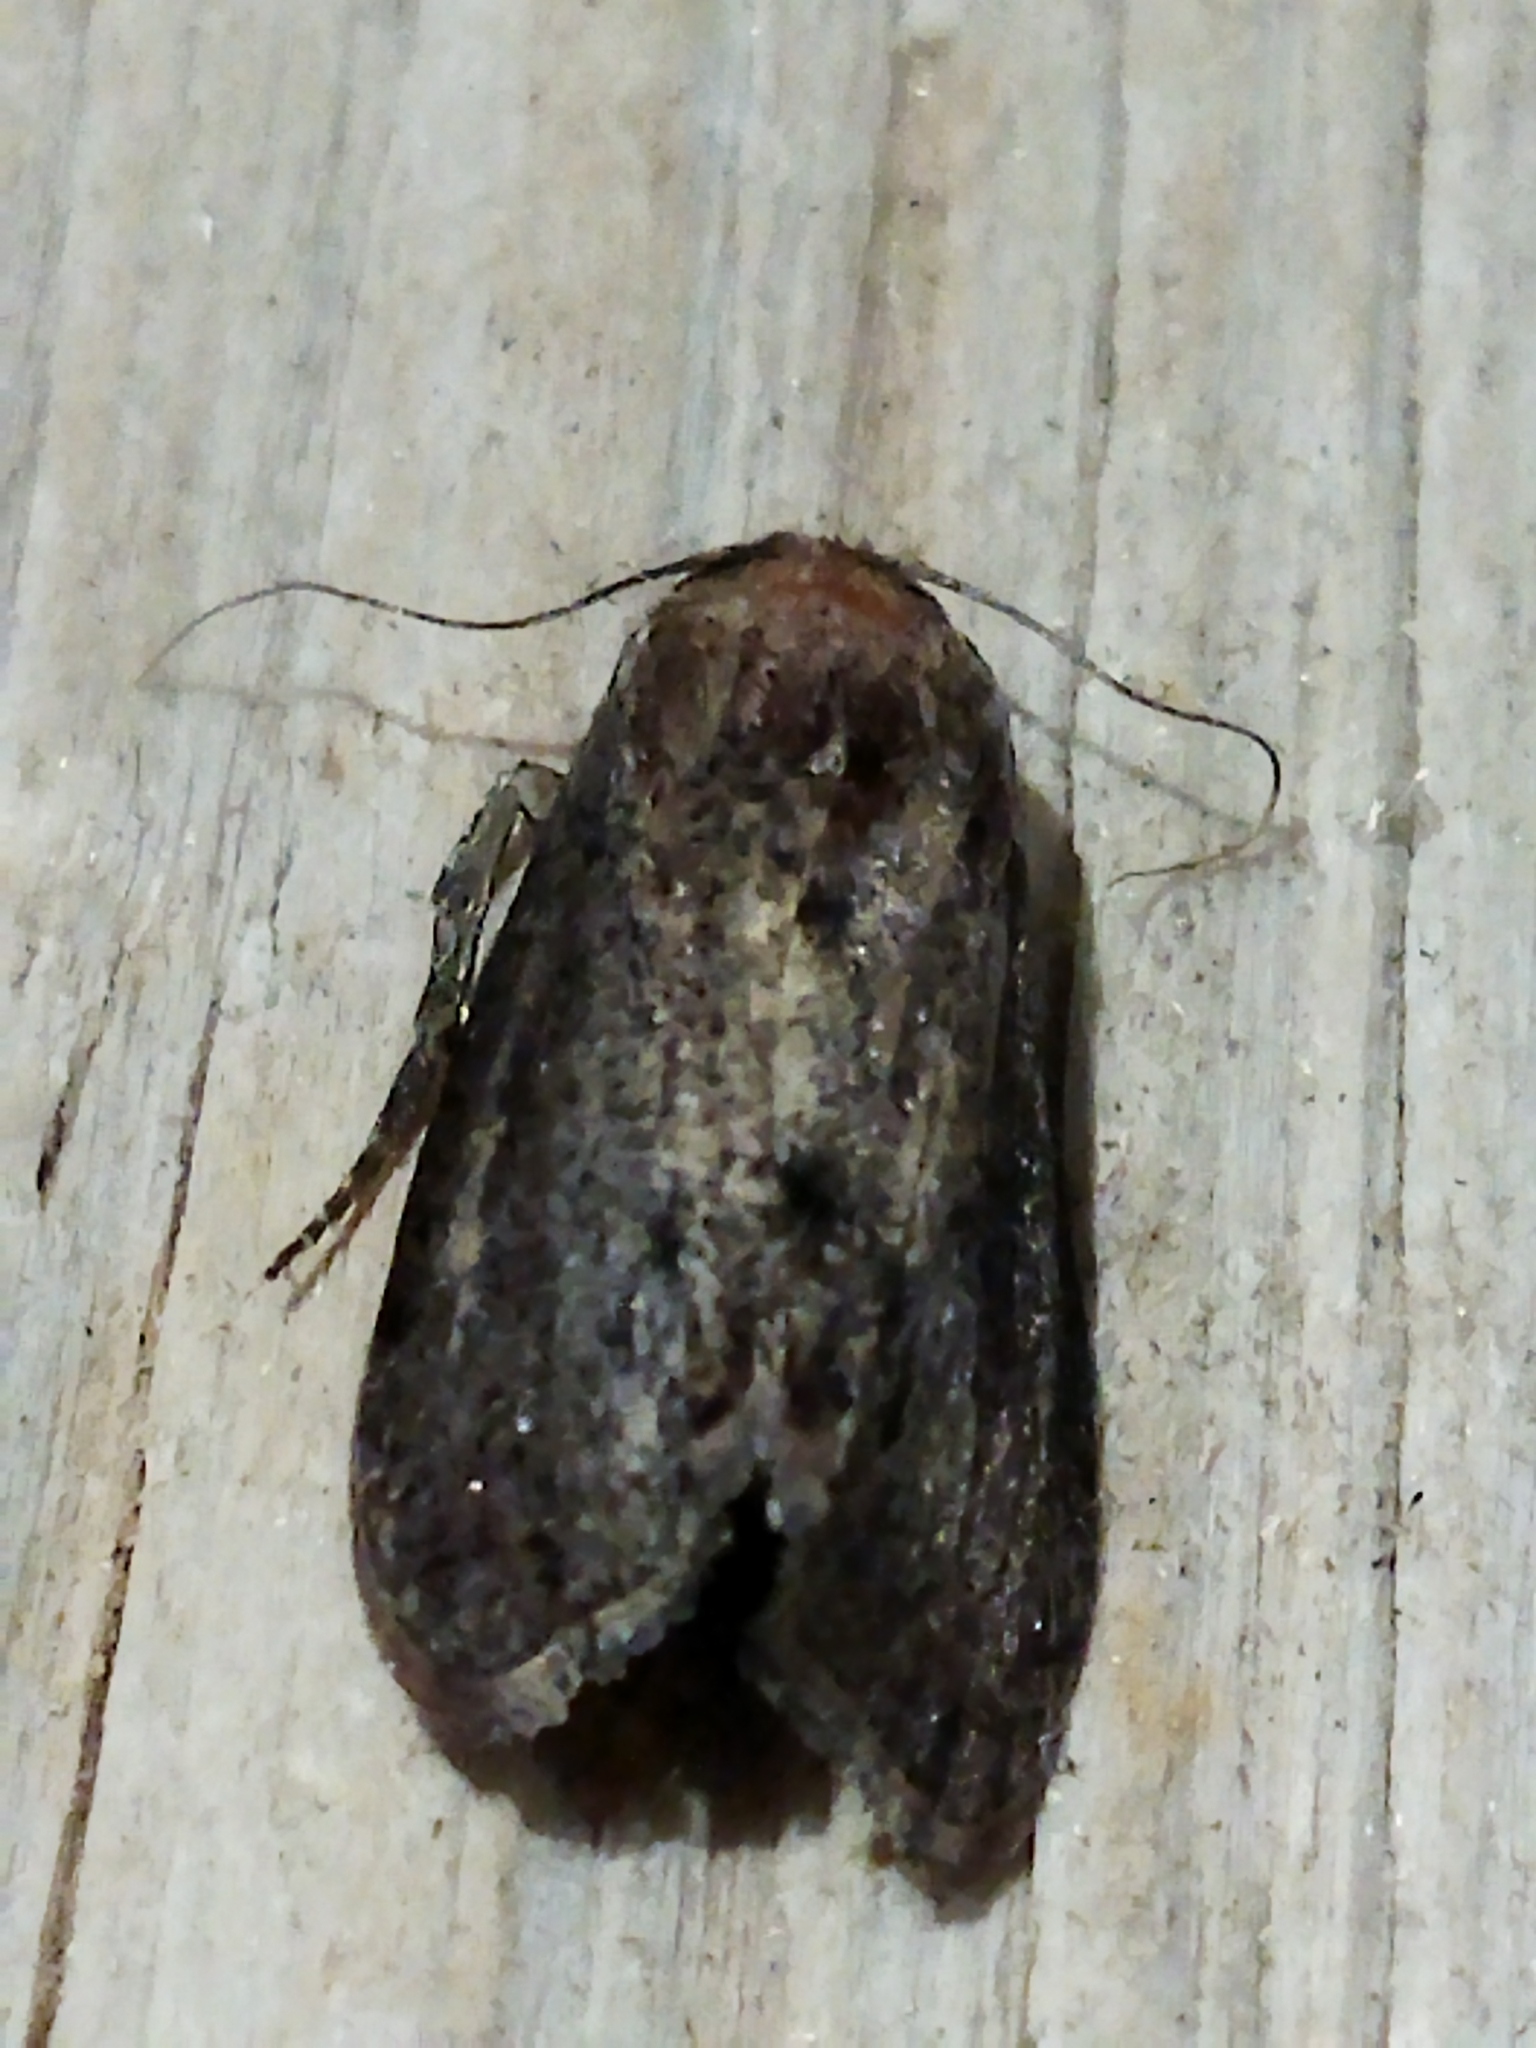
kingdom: Animalia
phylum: Arthropoda
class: Insecta
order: Lepidoptera
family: Pyralidae
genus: Galleria
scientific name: Galleria mellonella
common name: Greater wax moth
